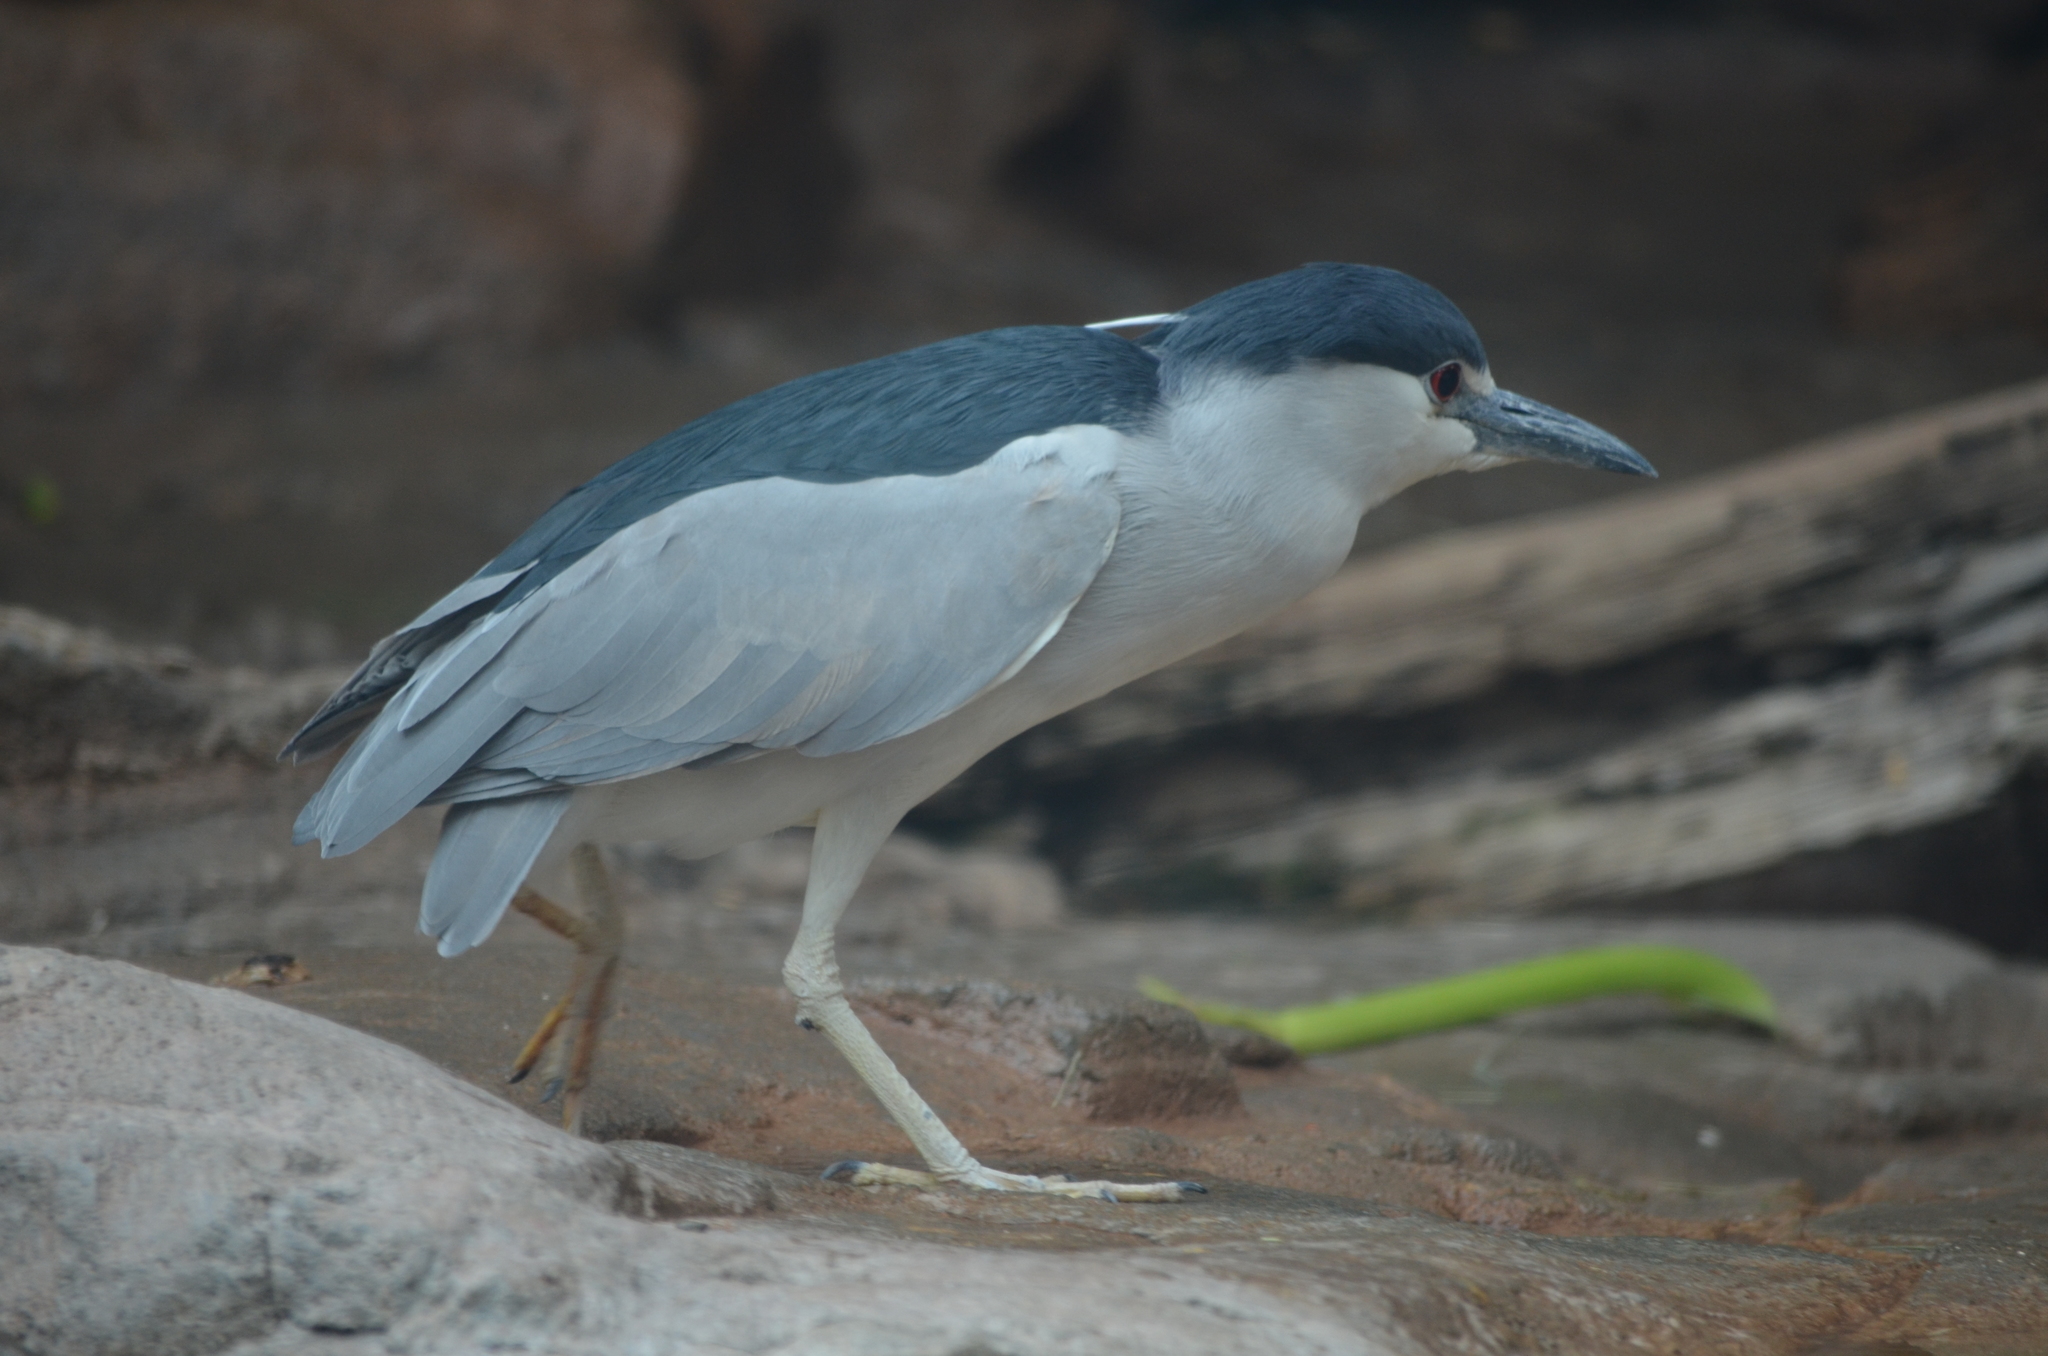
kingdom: Animalia
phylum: Chordata
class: Aves
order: Pelecaniformes
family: Ardeidae
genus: Nycticorax
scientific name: Nycticorax nycticorax
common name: Black-crowned night heron
